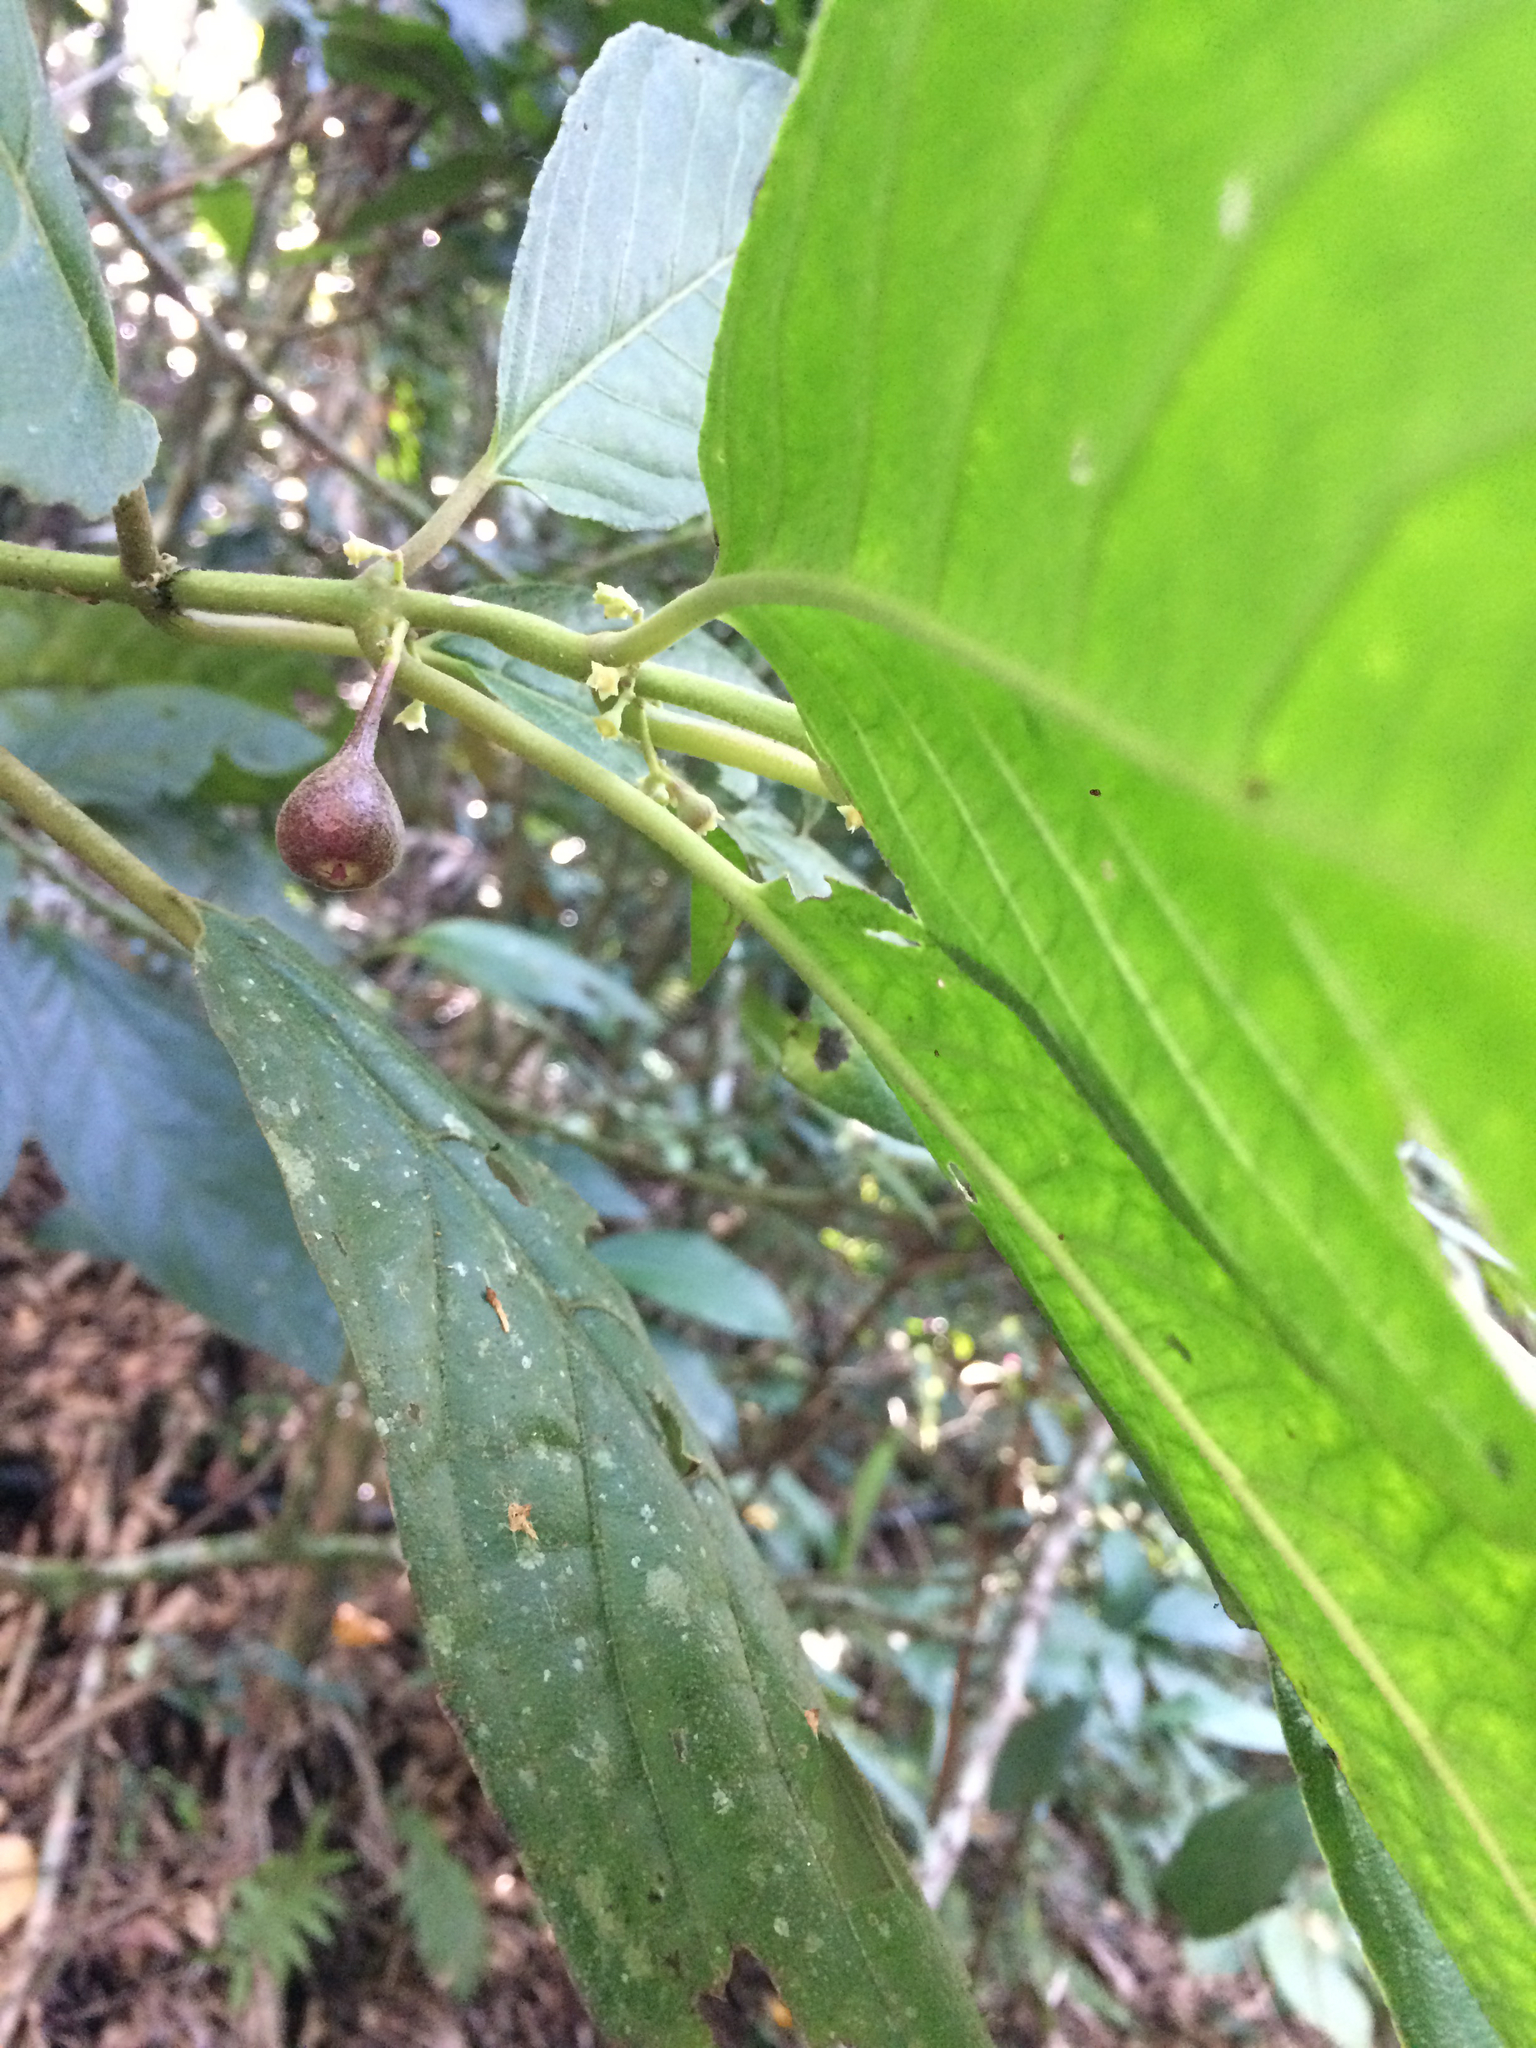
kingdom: Plantae
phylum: Tracheophyta
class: Magnoliopsida
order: Laurales
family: Siparunaceae
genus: Siparuna
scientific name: Siparuna brasiliensis
